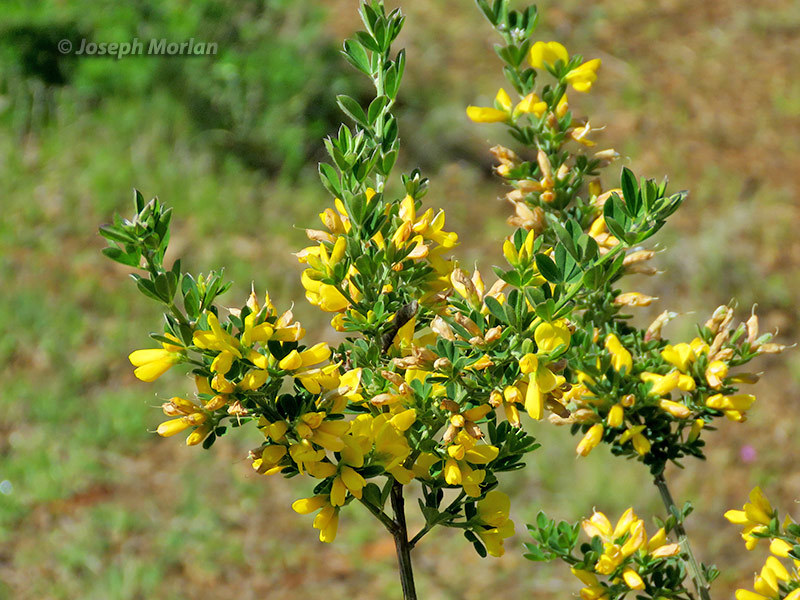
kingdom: Plantae
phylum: Tracheophyta
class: Magnoliopsida
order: Fabales
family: Fabaceae
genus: Genista
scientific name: Genista monspessulana
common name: Montpellier broom
